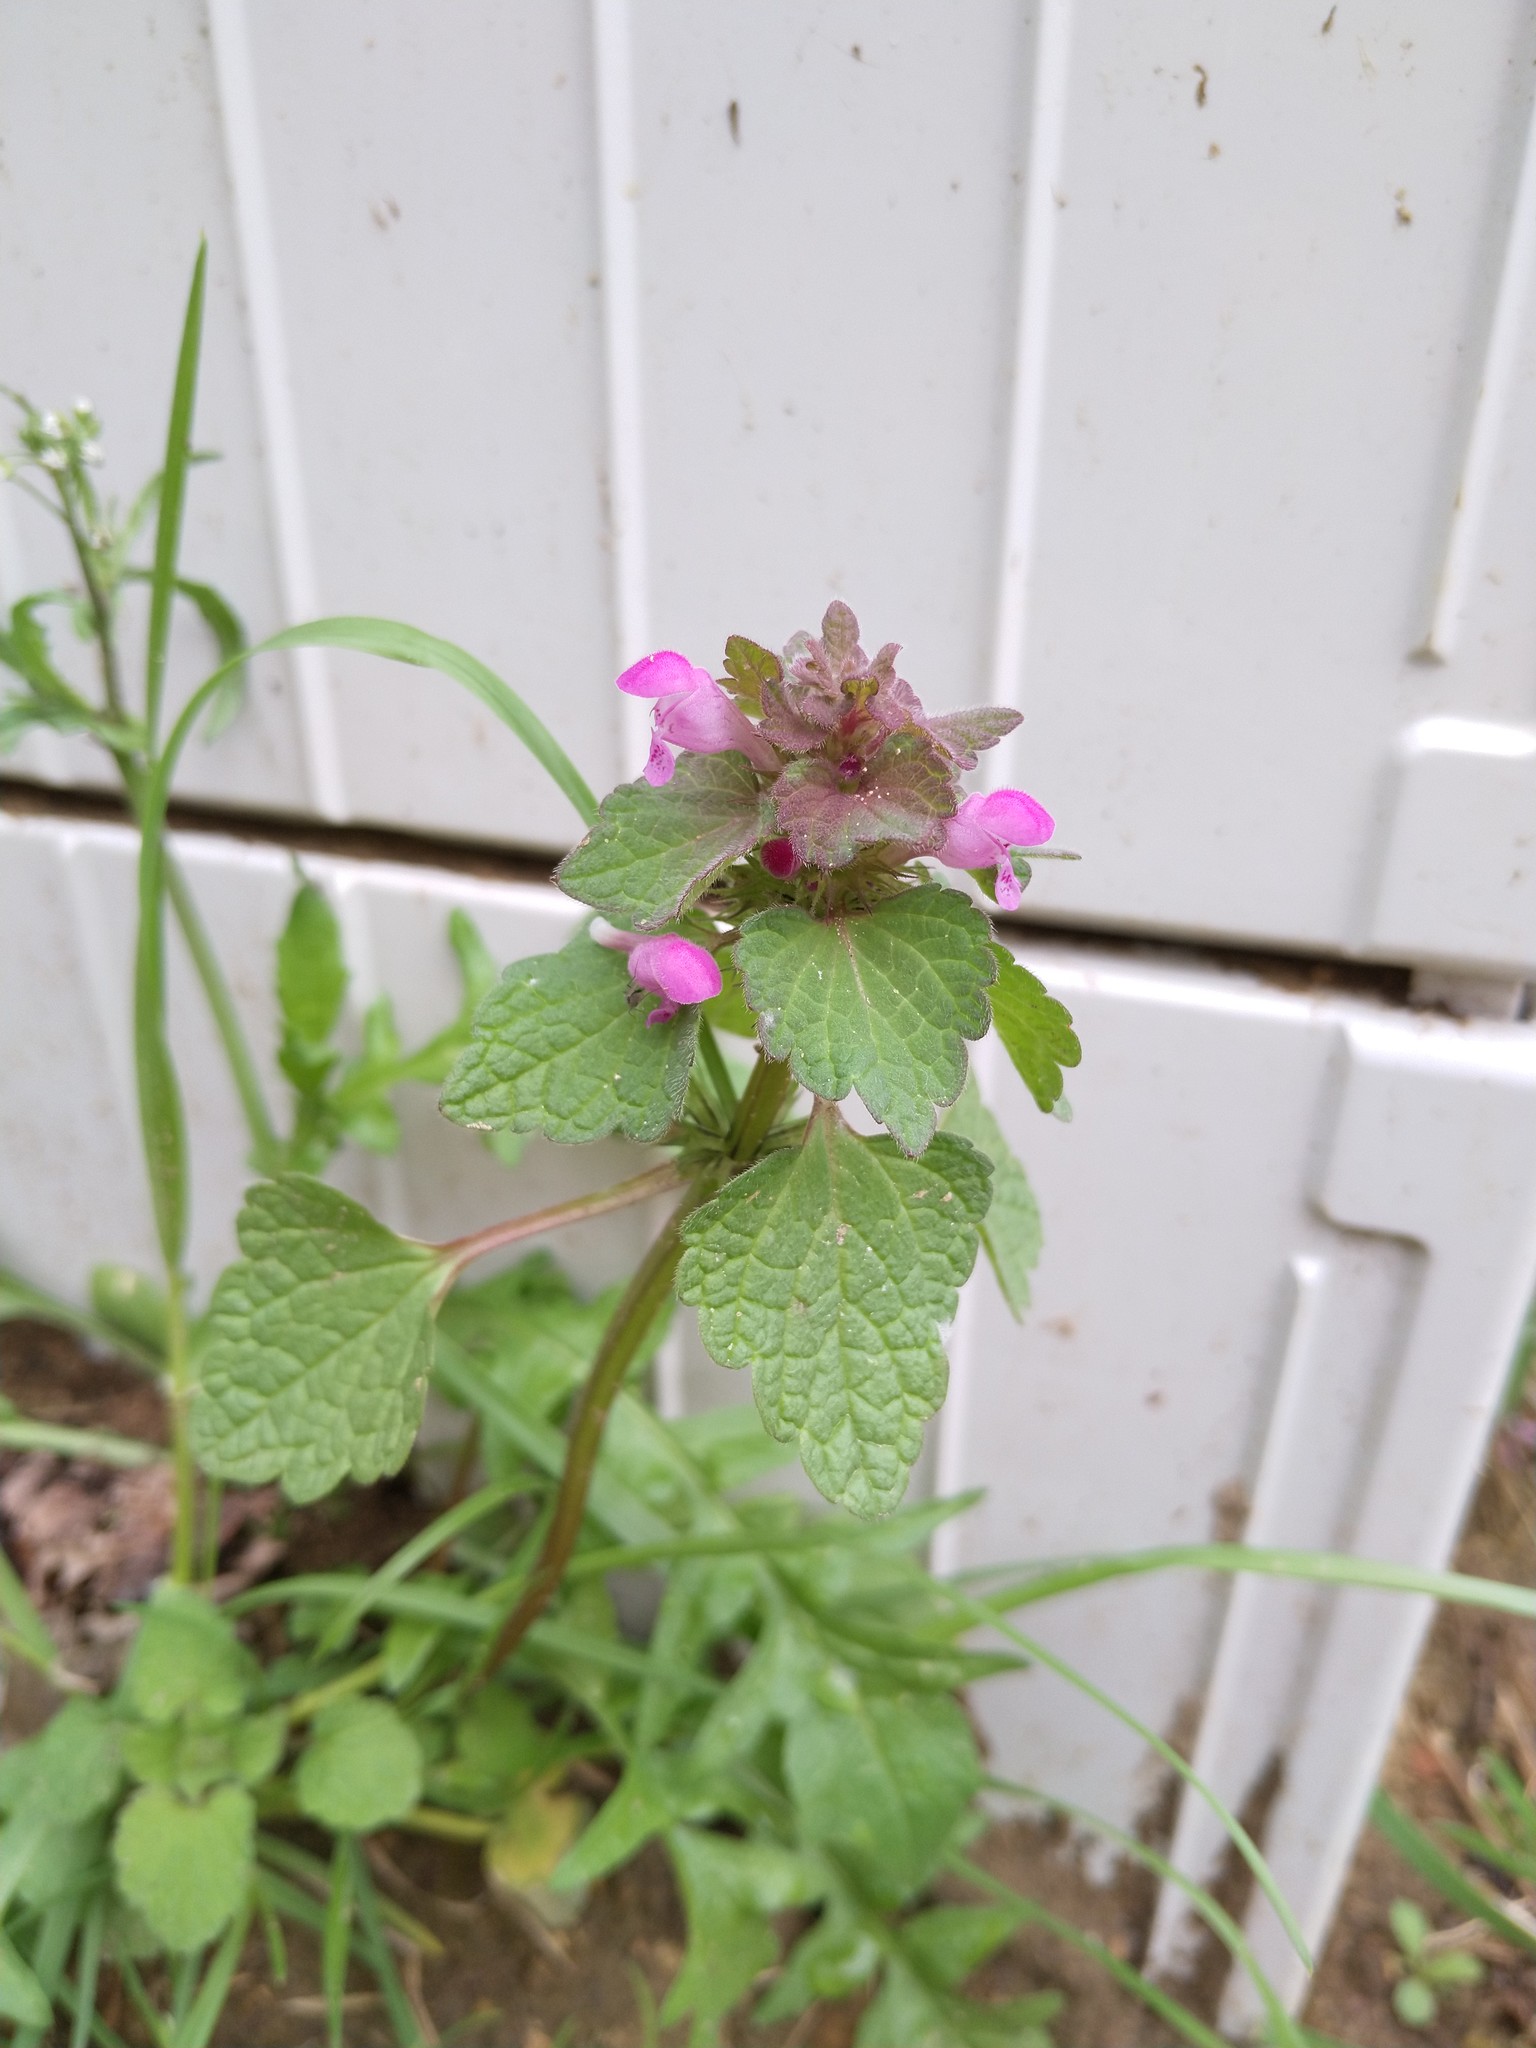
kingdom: Plantae
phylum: Tracheophyta
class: Magnoliopsida
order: Lamiales
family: Lamiaceae
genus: Lamium
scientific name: Lamium purpureum
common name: Red dead-nettle
